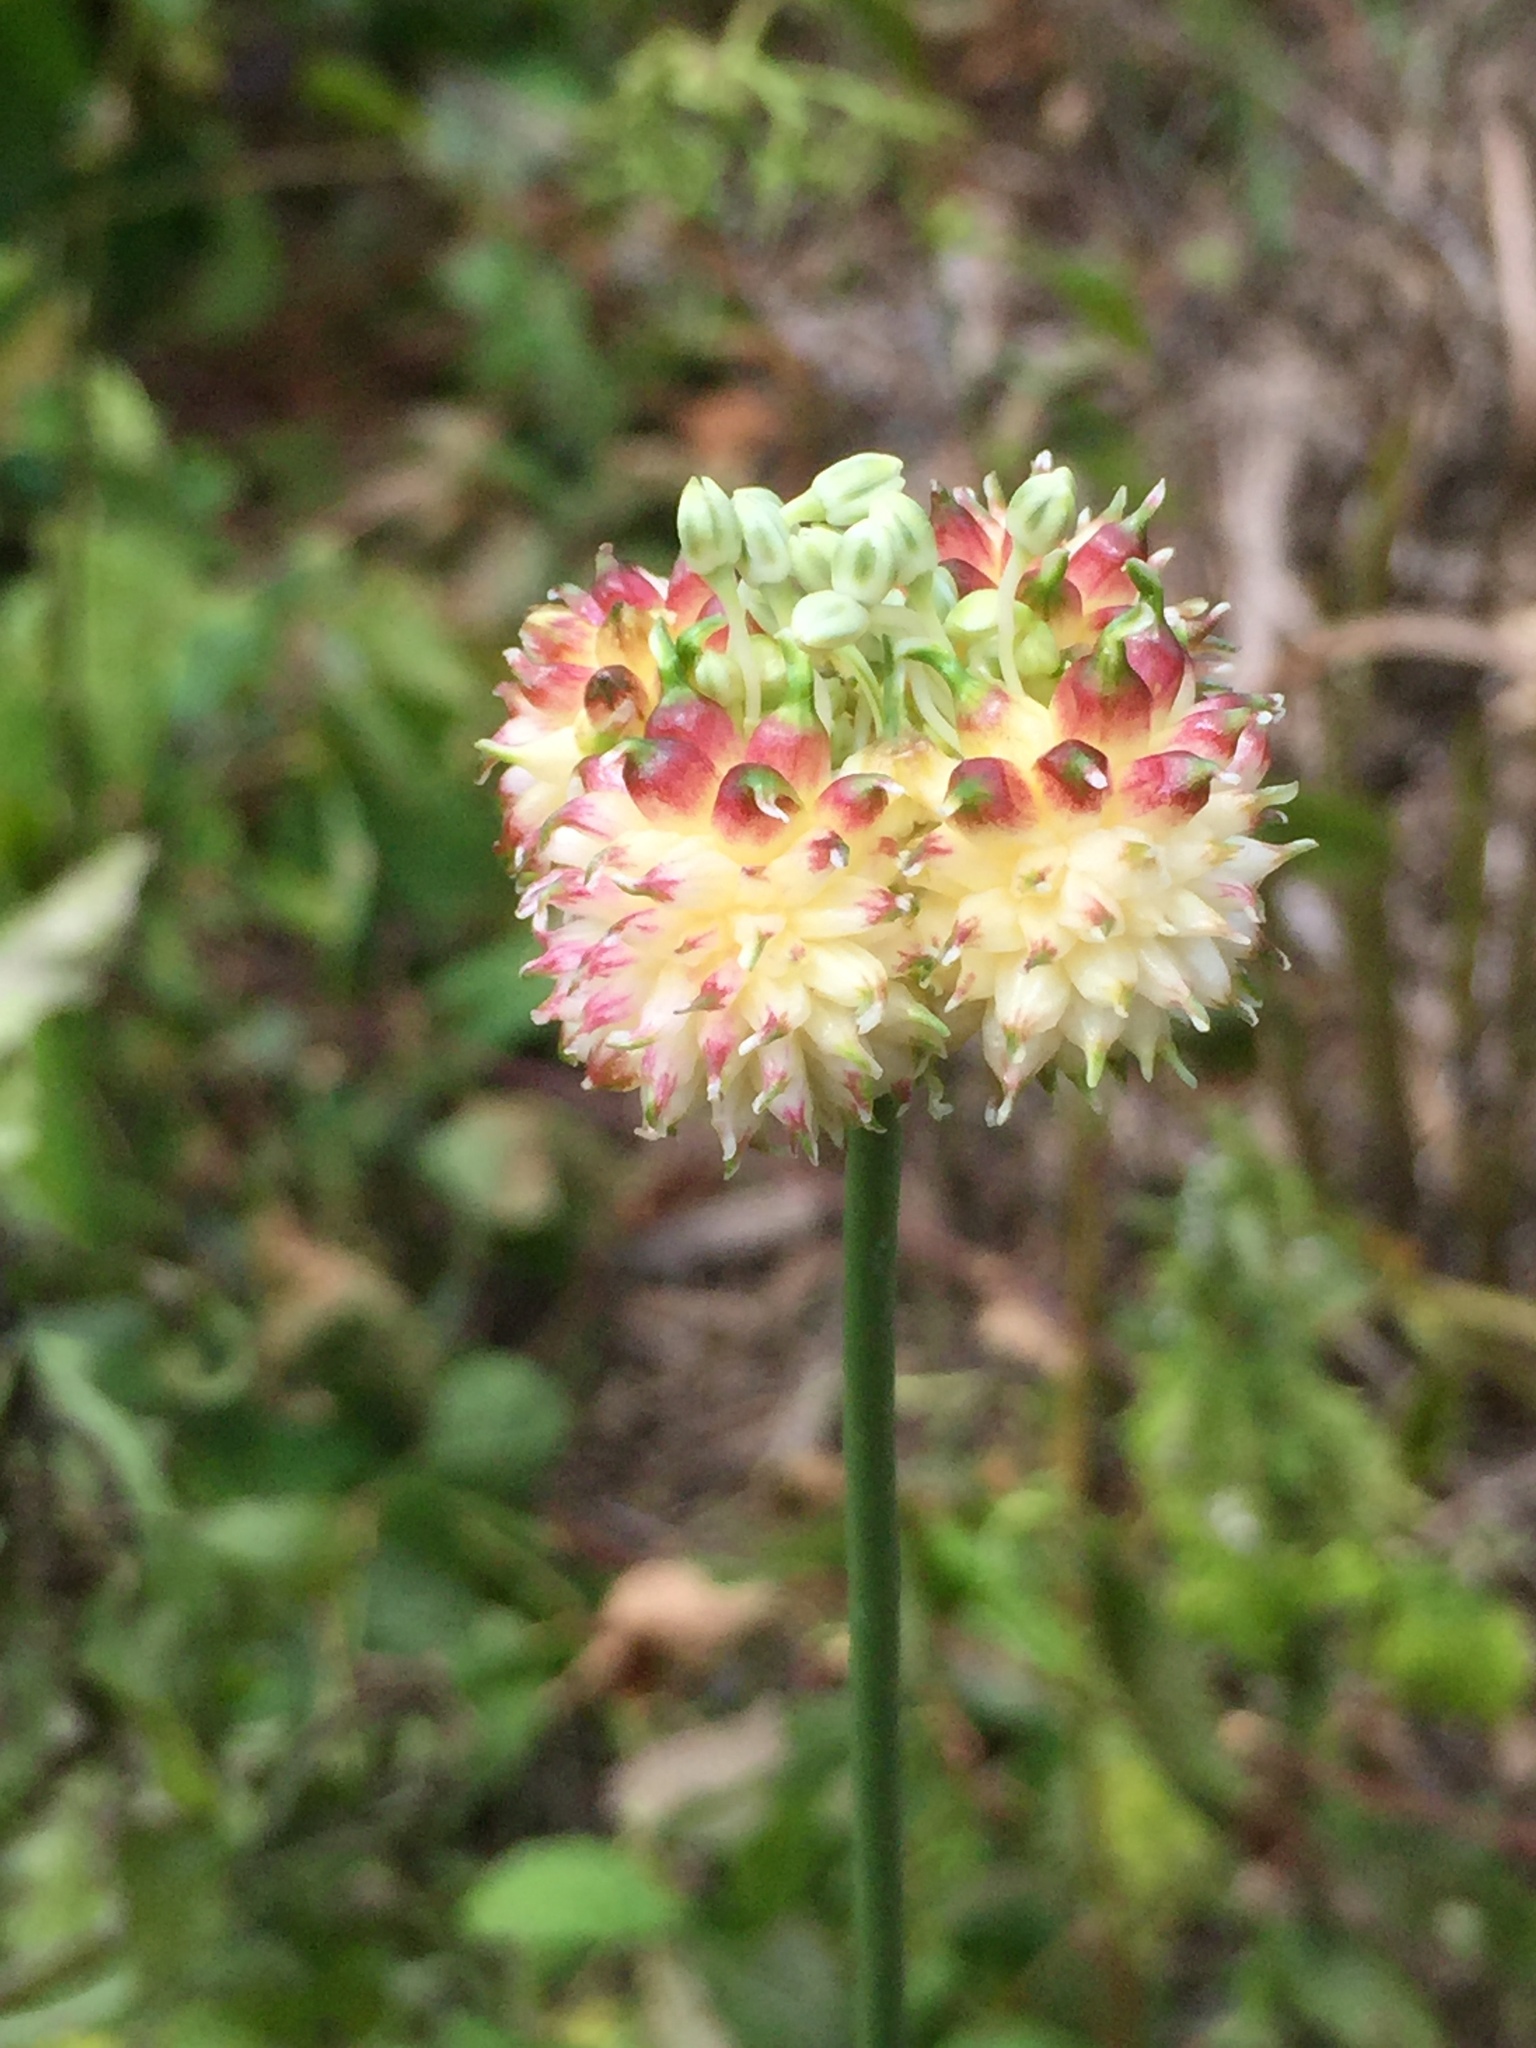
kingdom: Plantae
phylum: Tracheophyta
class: Liliopsida
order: Asparagales
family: Amaryllidaceae
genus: Allium
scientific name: Allium vineale
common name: Crow garlic
